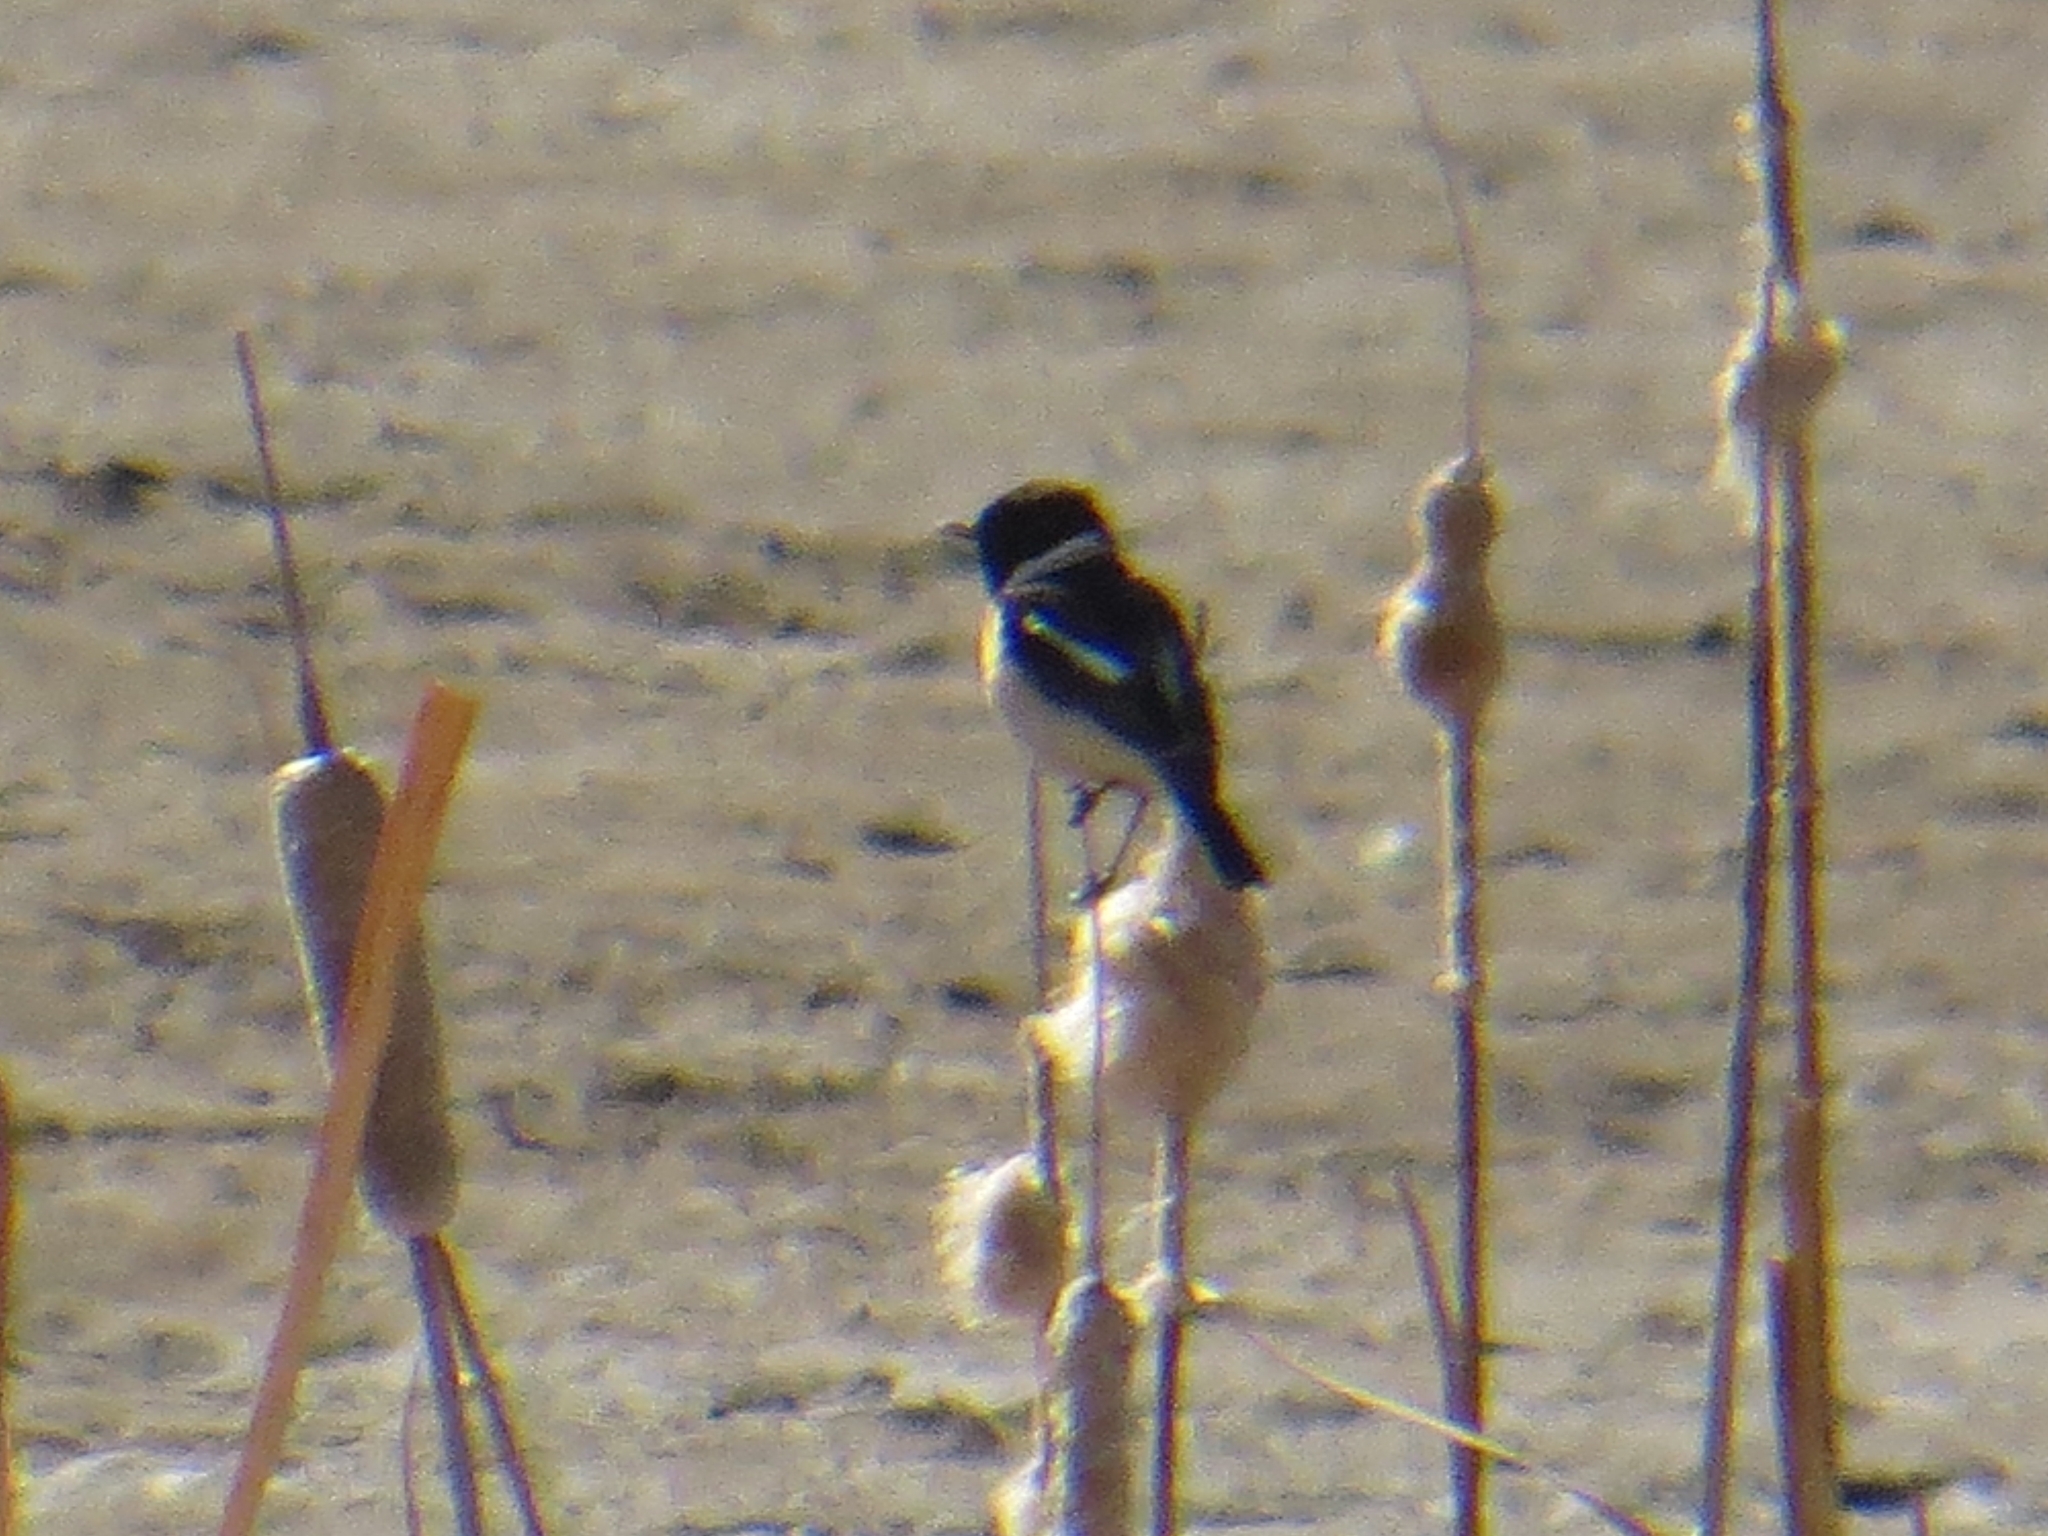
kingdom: Animalia
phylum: Chordata
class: Aves
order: Passeriformes
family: Muscicapidae
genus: Saxicola
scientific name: Saxicola maurus
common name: Siberian stonechat
